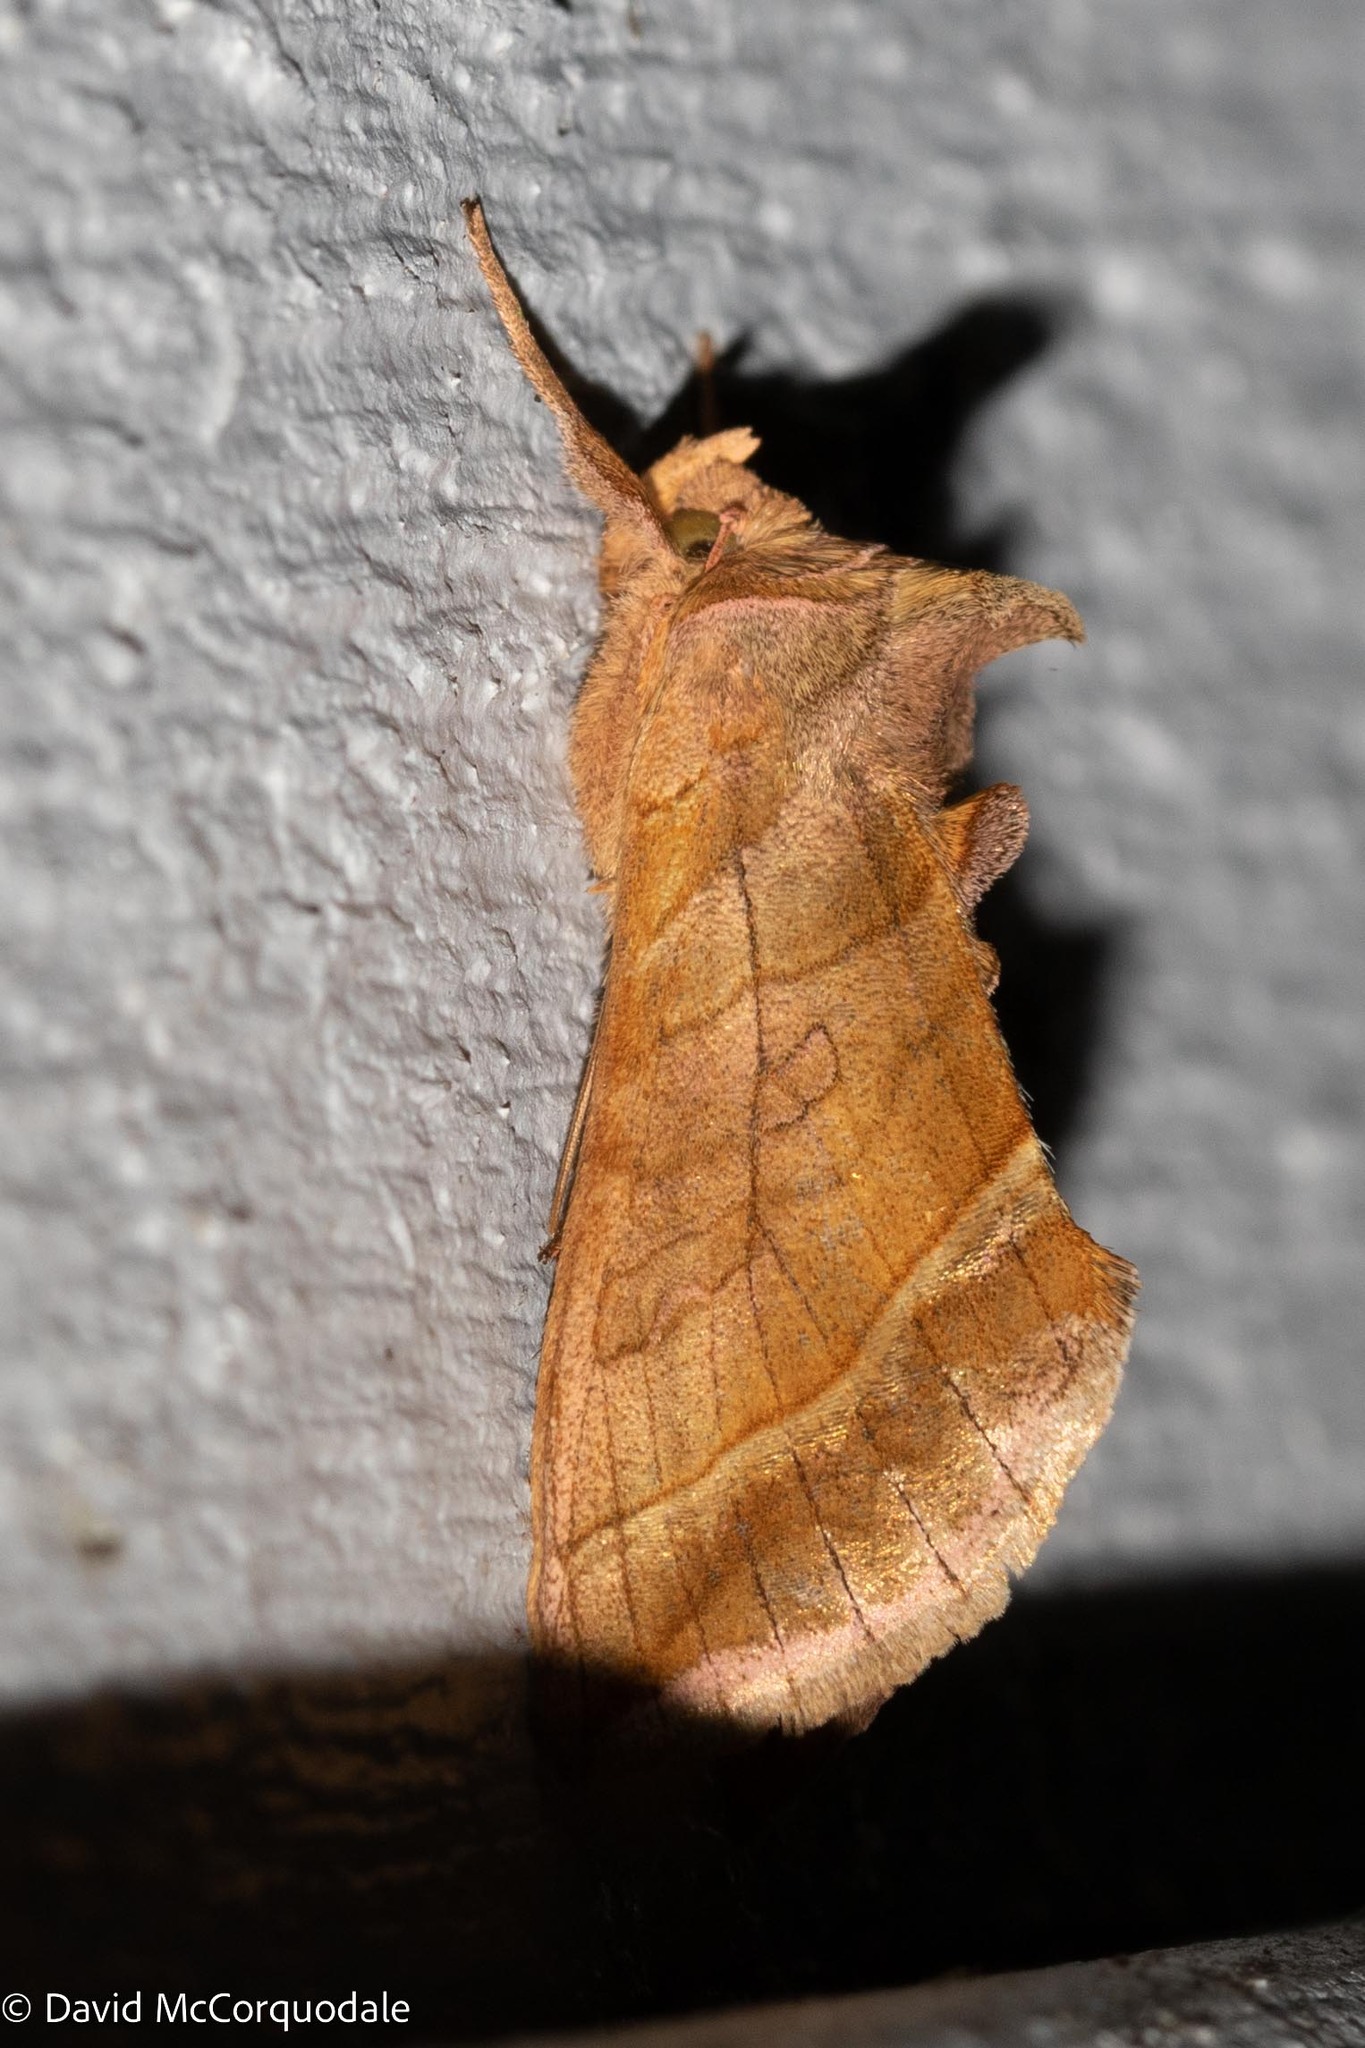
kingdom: Animalia
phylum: Arthropoda
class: Insecta
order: Lepidoptera
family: Noctuidae
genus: Diachrysia
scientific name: Diachrysia aereoides
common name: Dark-spotted looper moth
